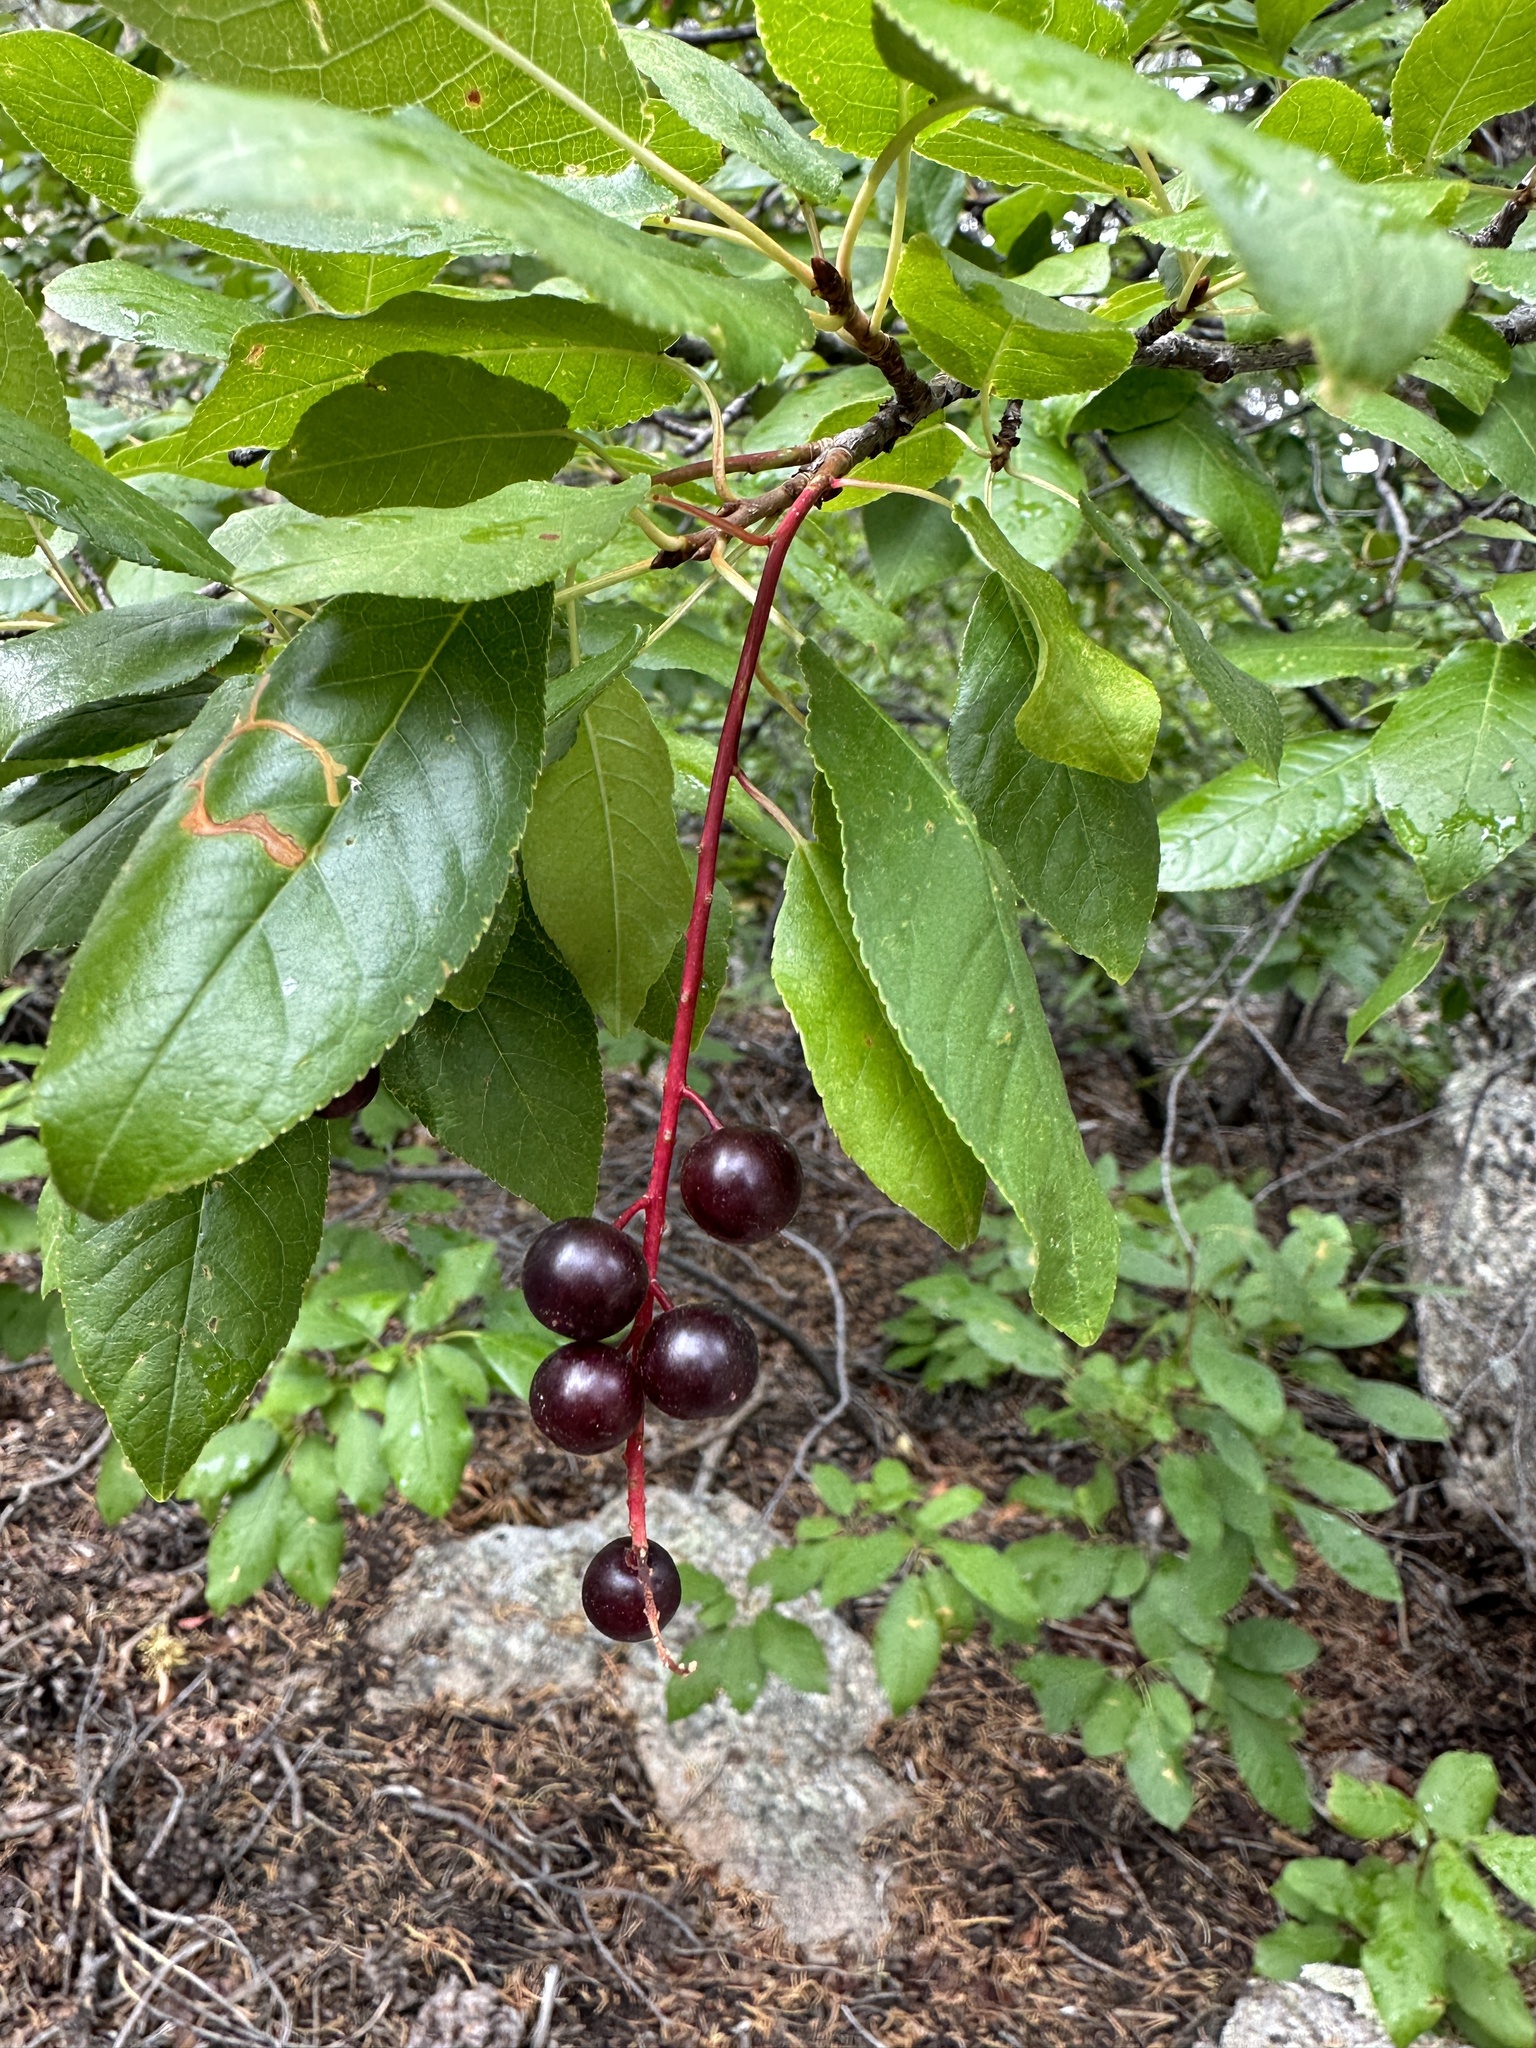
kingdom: Plantae
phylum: Tracheophyta
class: Magnoliopsida
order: Rosales
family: Rosaceae
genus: Prunus
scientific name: Prunus virginiana
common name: Chokecherry
